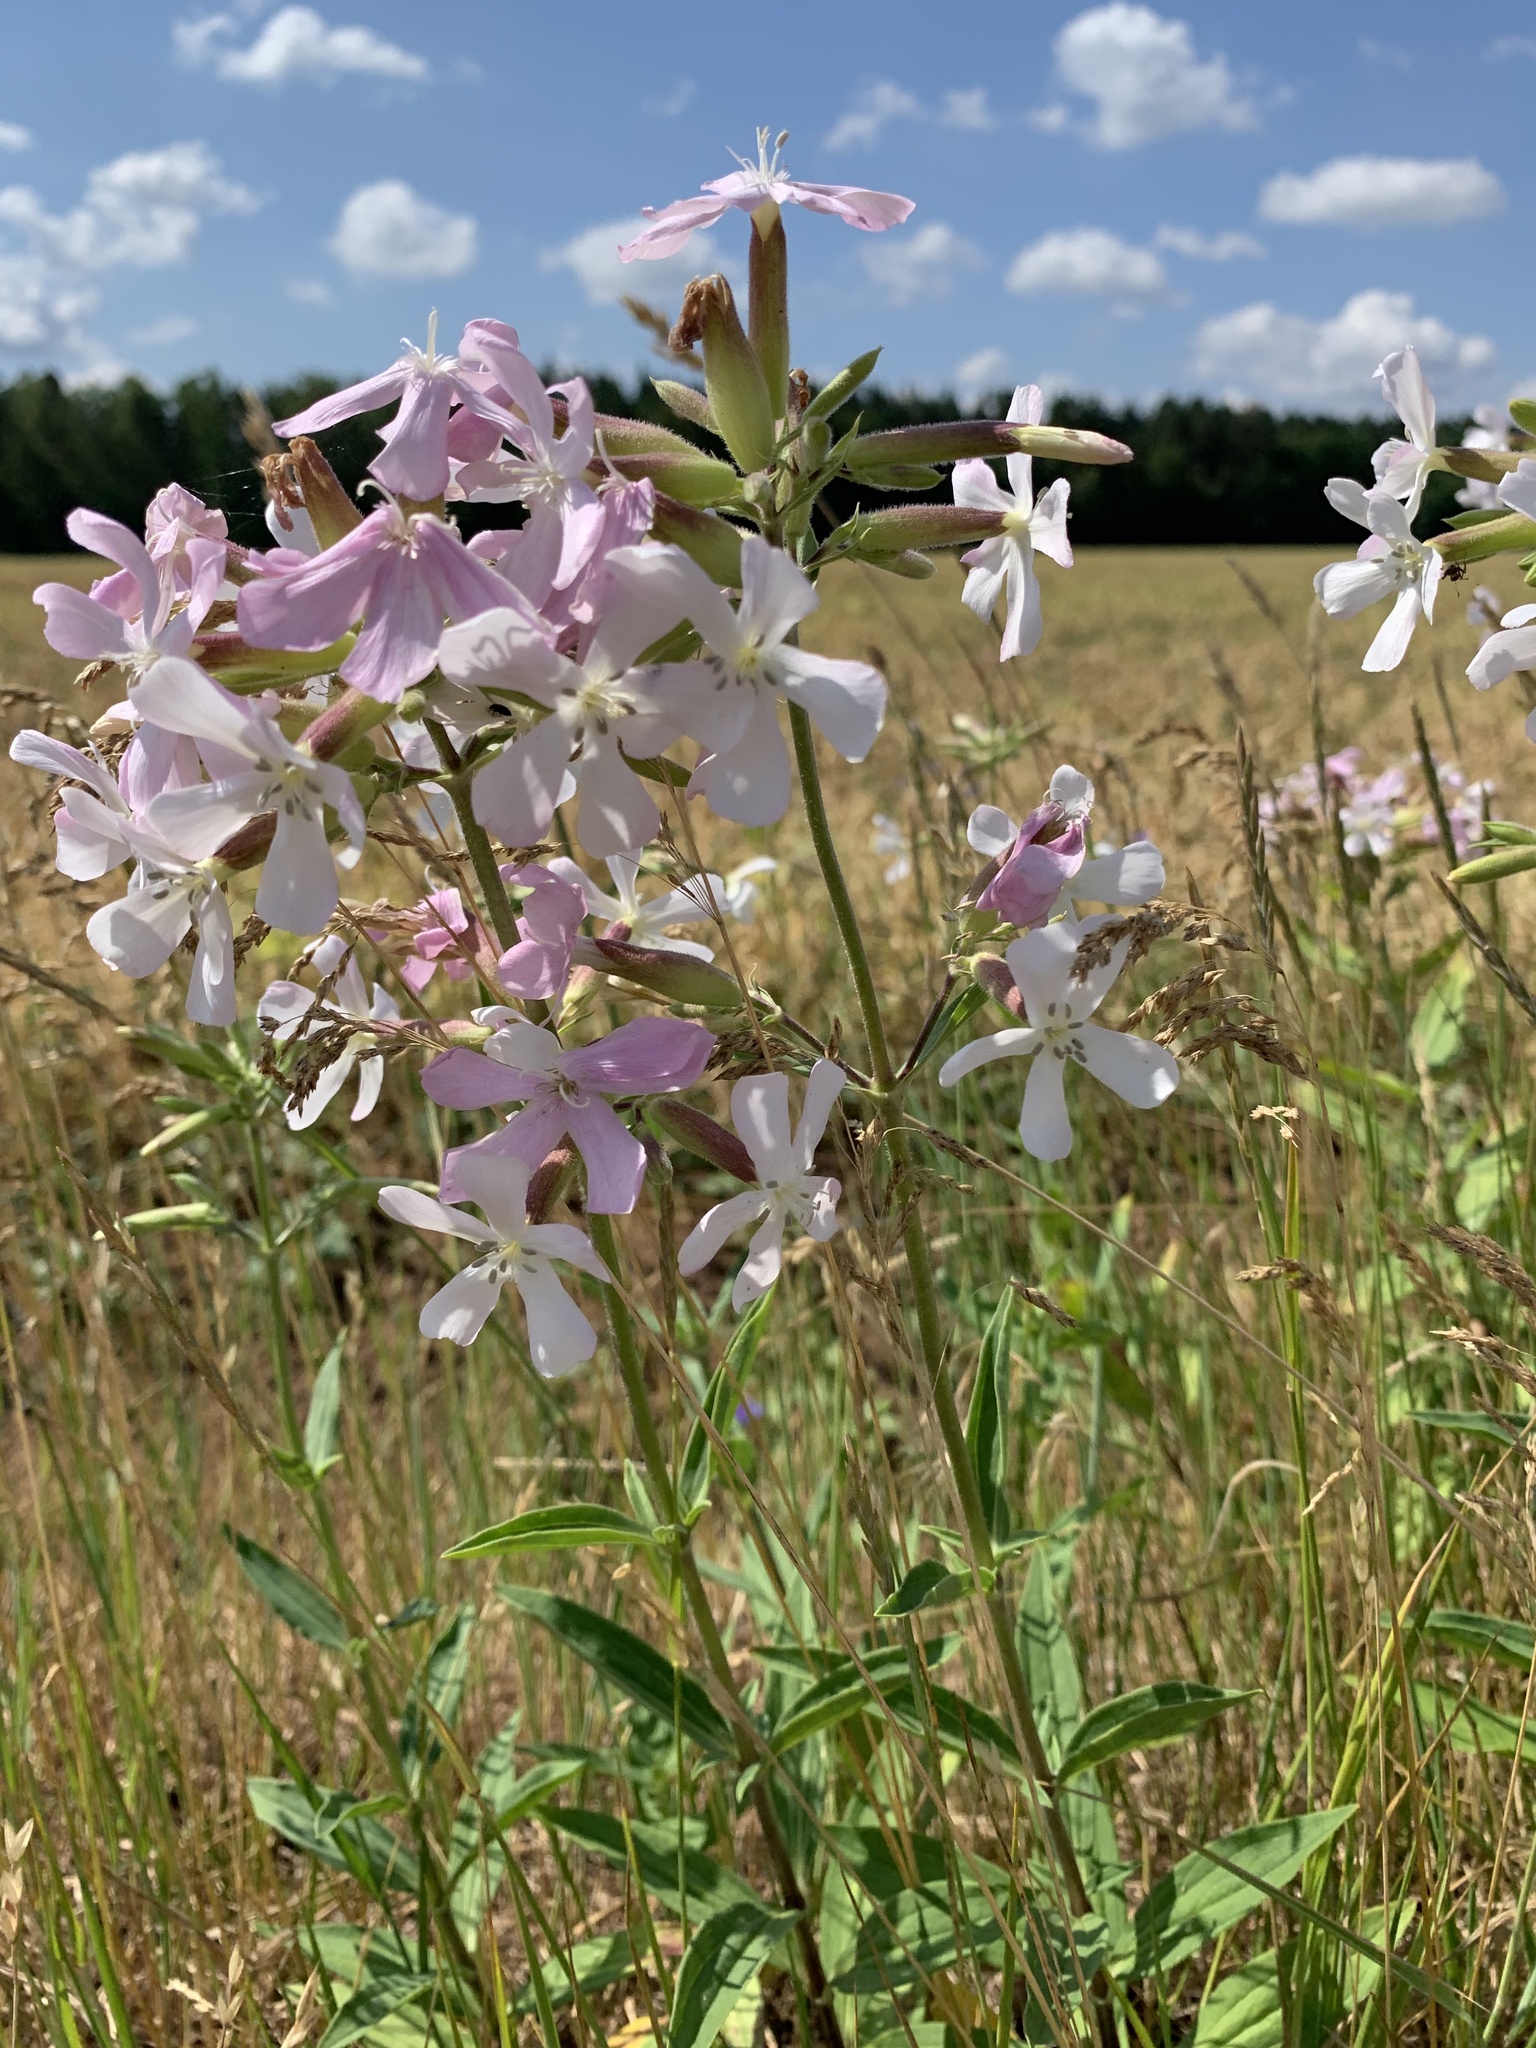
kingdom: Plantae
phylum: Tracheophyta
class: Magnoliopsida
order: Caryophyllales
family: Caryophyllaceae
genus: Saponaria
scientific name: Saponaria officinalis
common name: Soapwort
